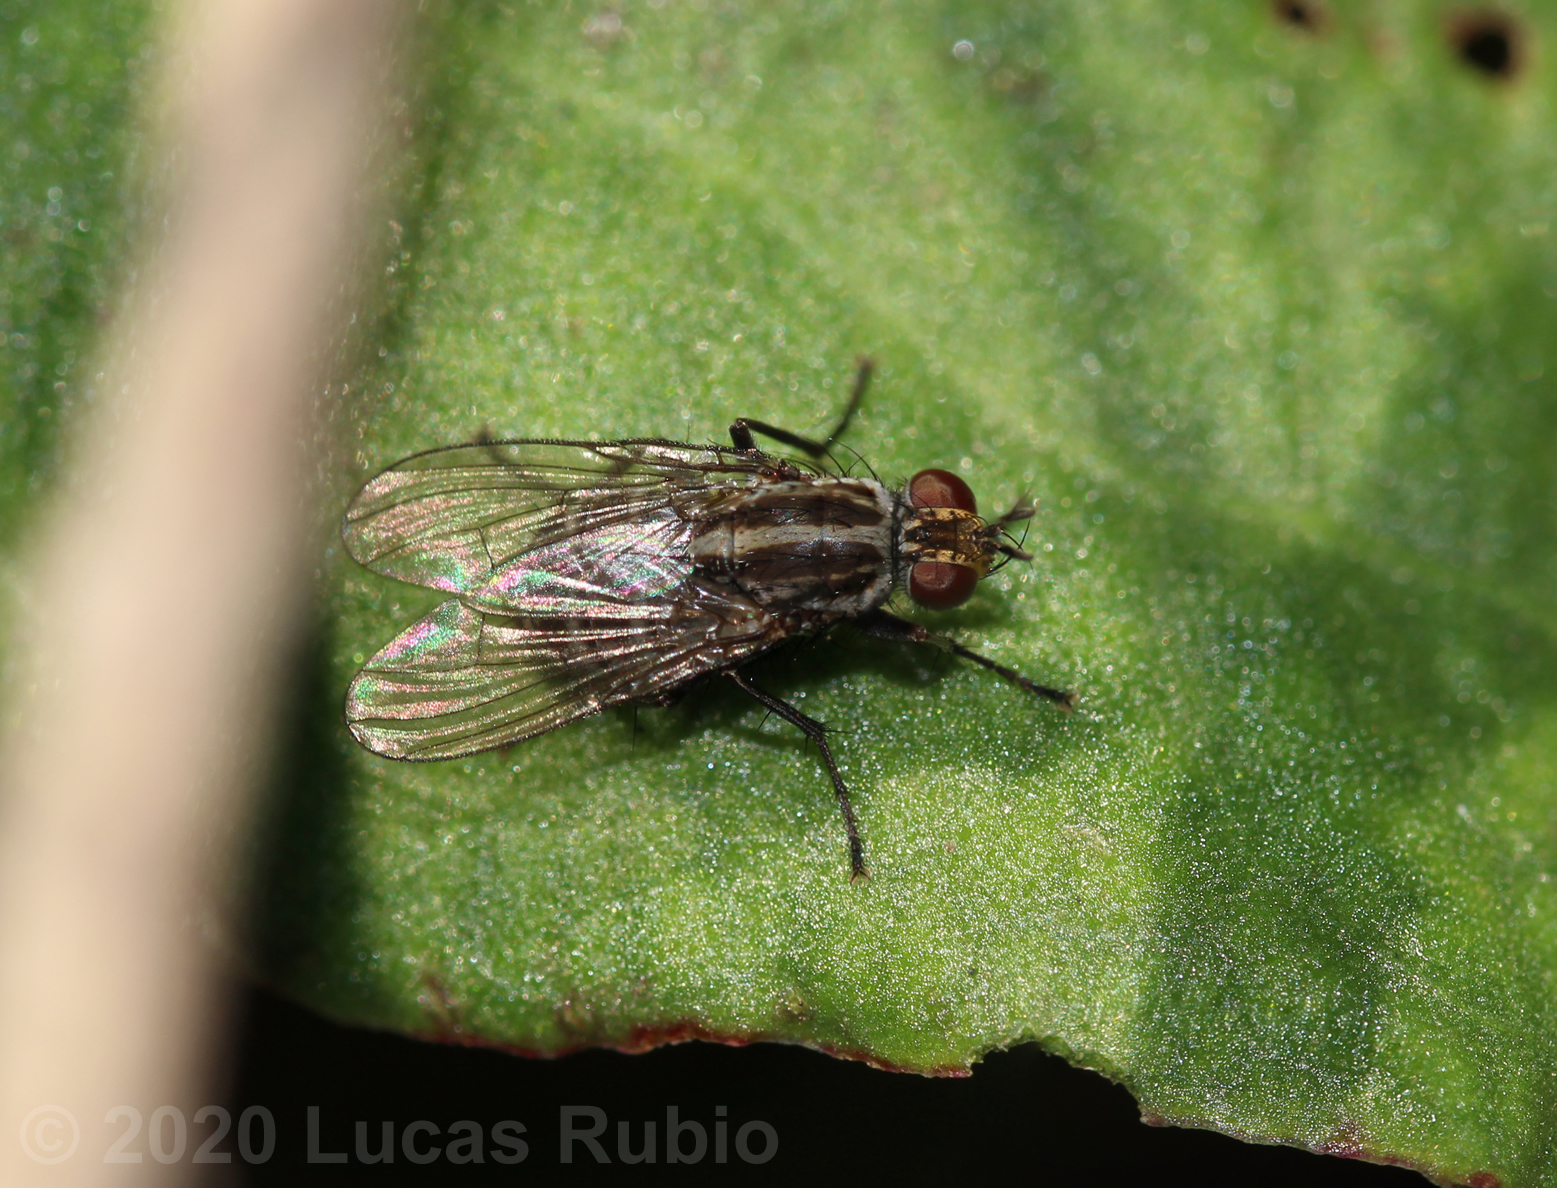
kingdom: Animalia
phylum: Arthropoda
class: Insecta
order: Diptera
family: Muscidae
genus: Neodexiopsis
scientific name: Neodexiopsis paulistensis
